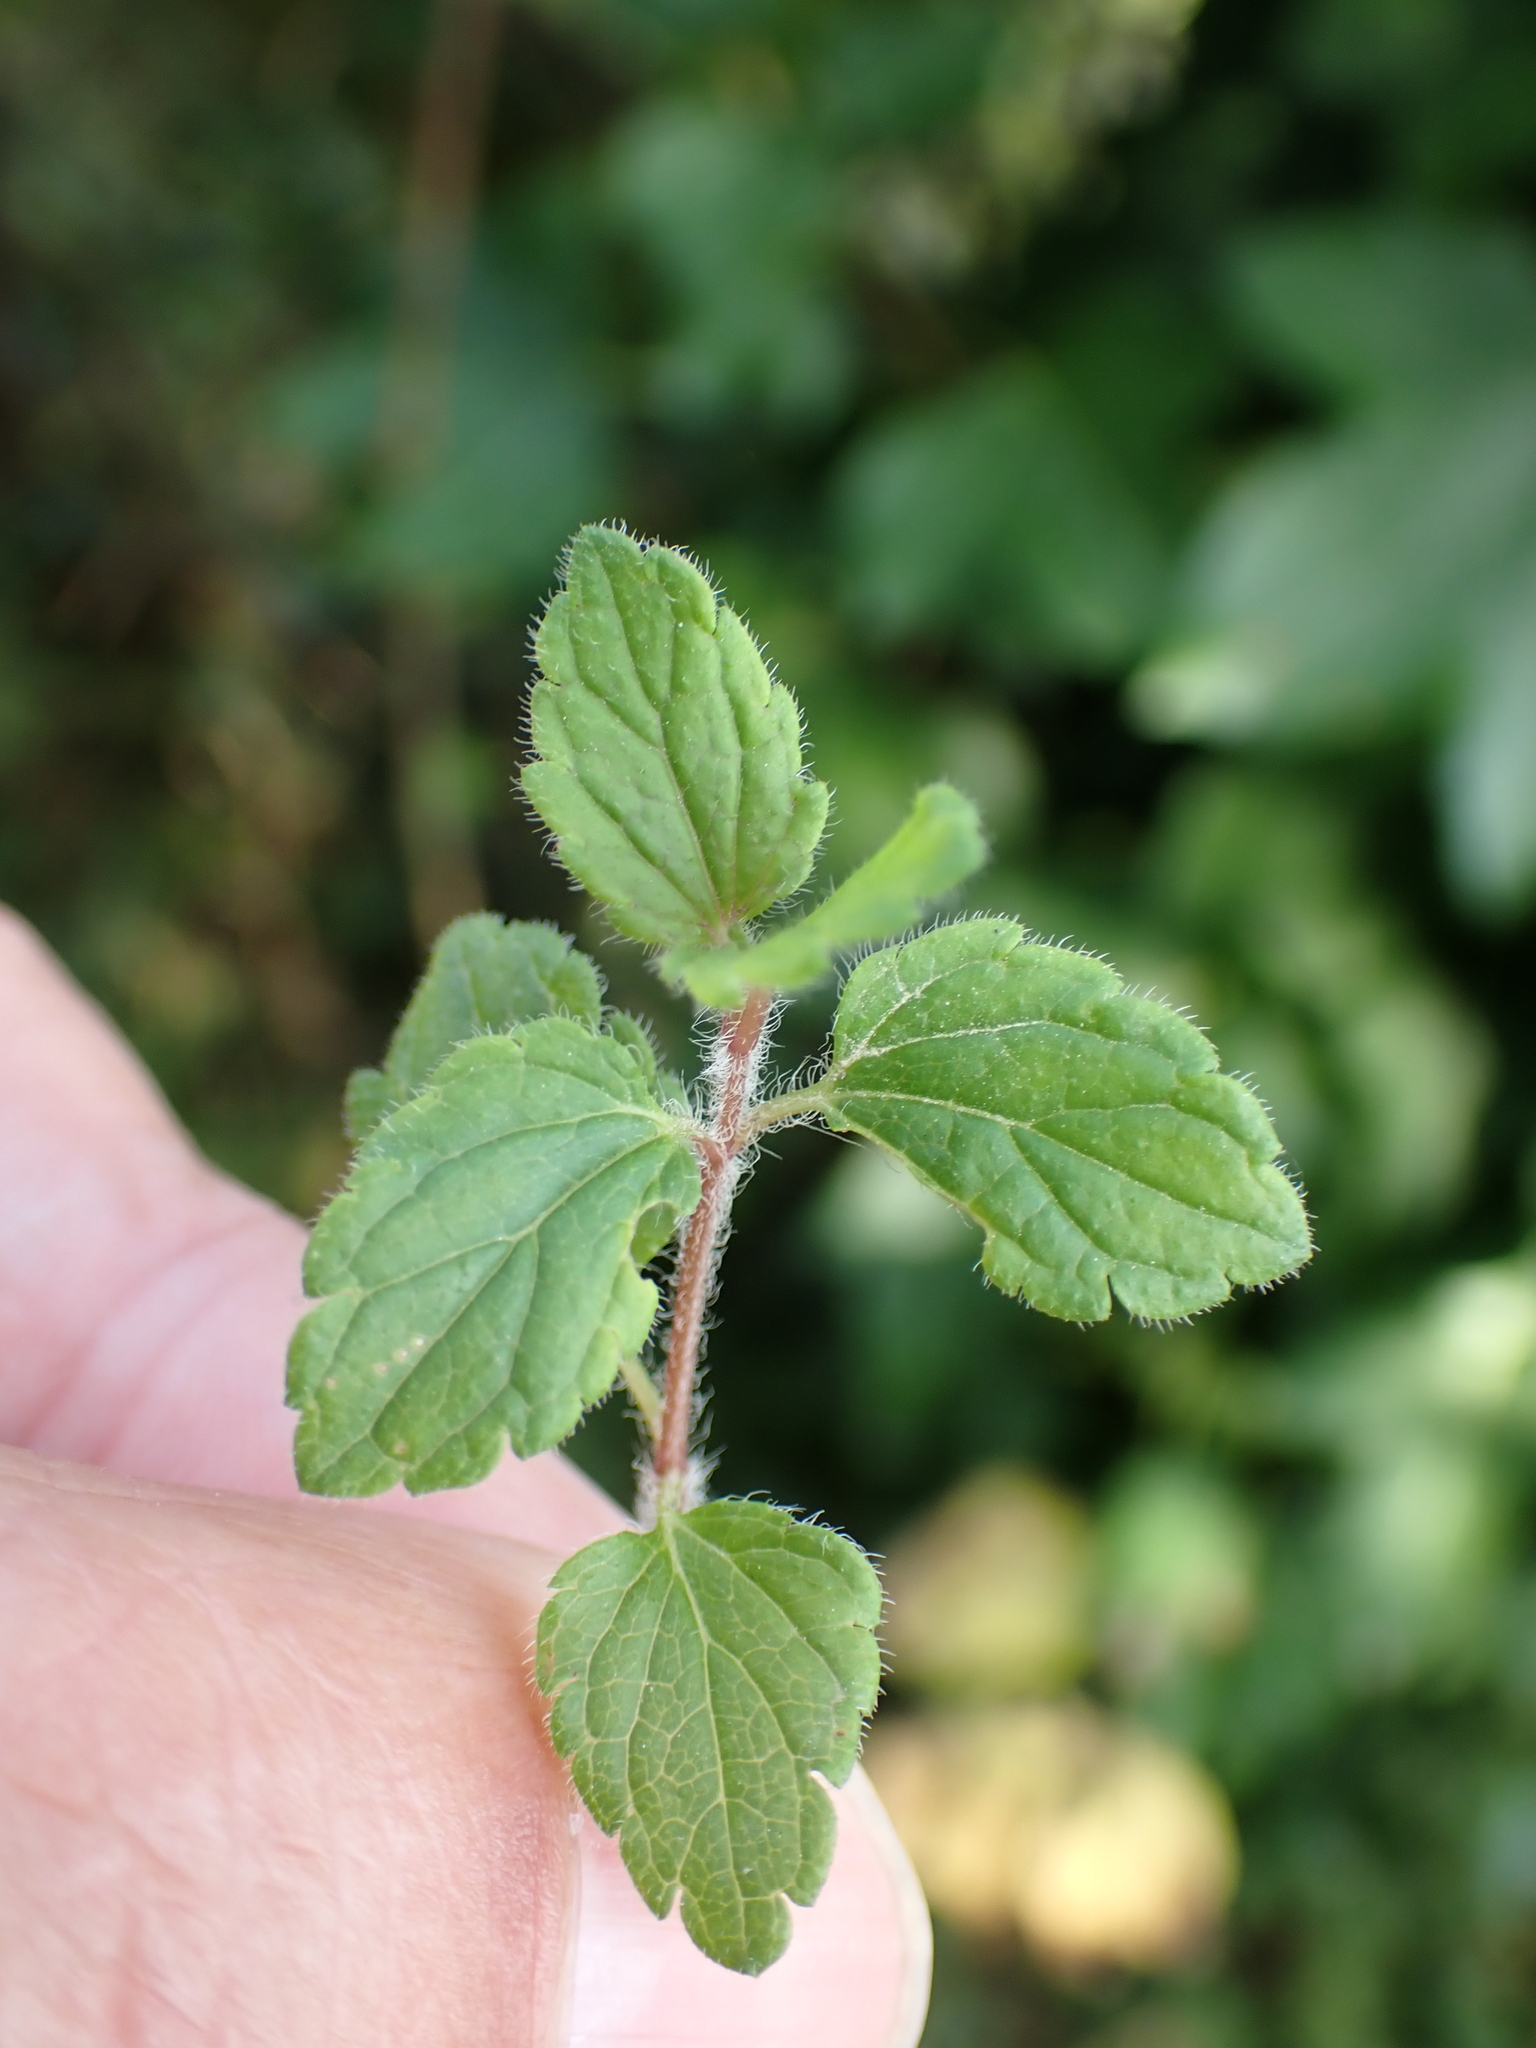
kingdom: Plantae
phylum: Tracheophyta
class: Magnoliopsida
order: Lamiales
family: Plantaginaceae
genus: Veronica
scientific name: Veronica chamaedrys
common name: Germander speedwell
